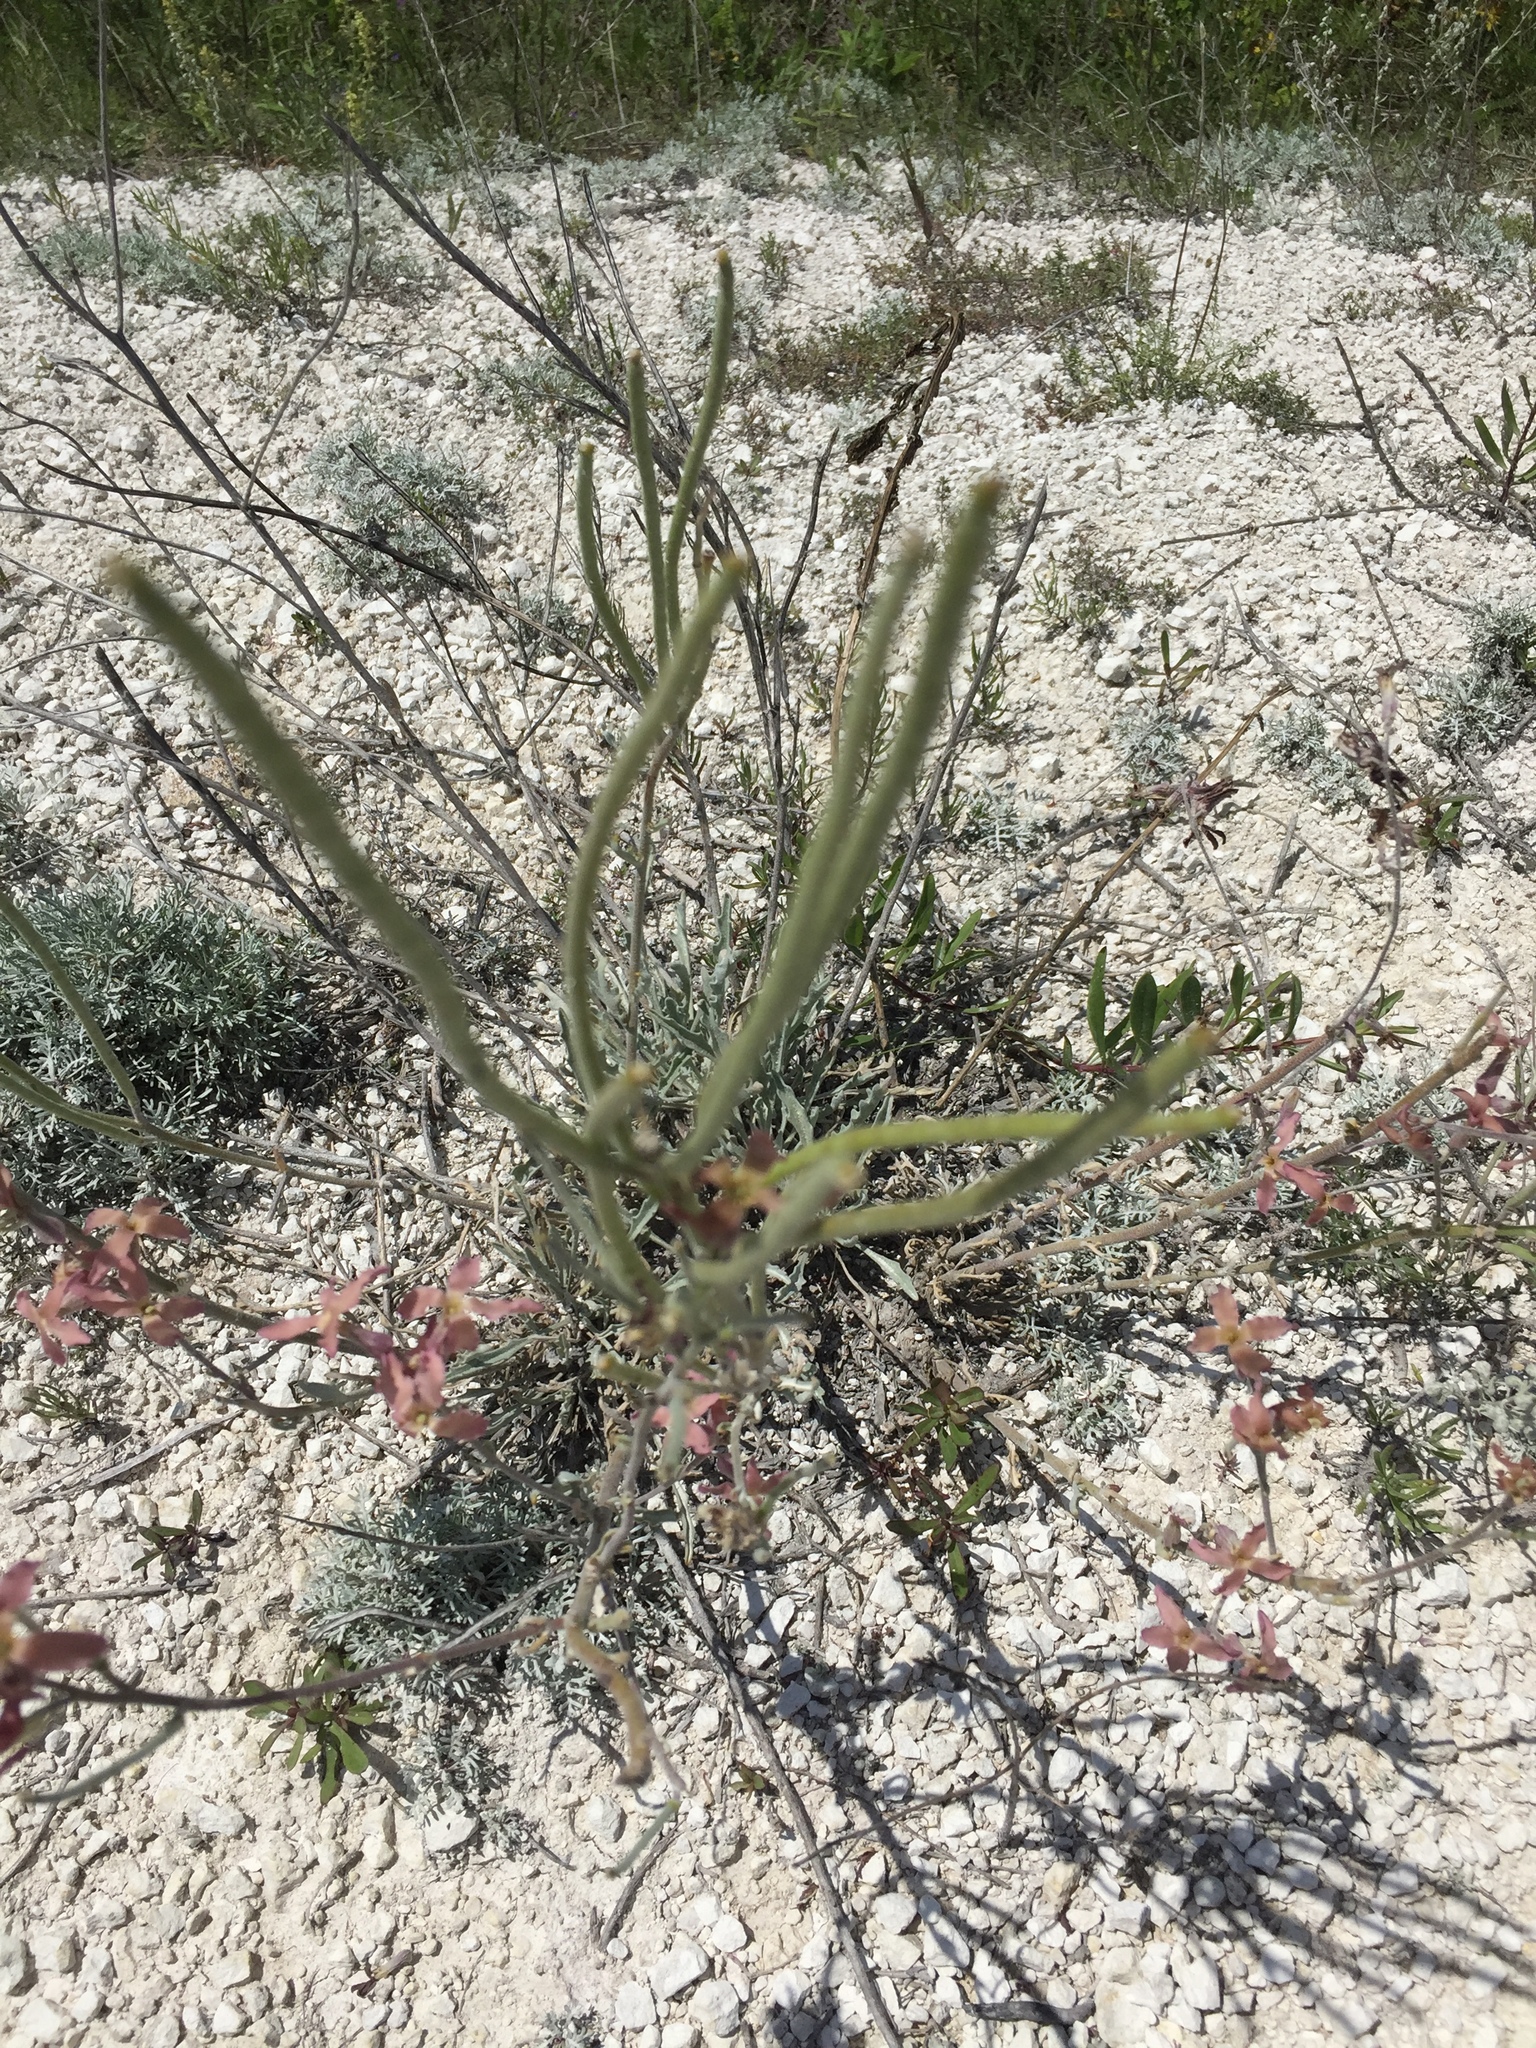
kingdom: Plantae
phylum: Tracheophyta
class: Magnoliopsida
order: Brassicales
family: Brassicaceae
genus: Matthiola
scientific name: Matthiola fragrans
